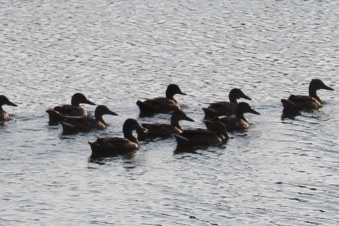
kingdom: Animalia
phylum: Chordata
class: Aves
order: Anseriformes
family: Anatidae
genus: Anas
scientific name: Anas platyrhynchos
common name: Mallard
